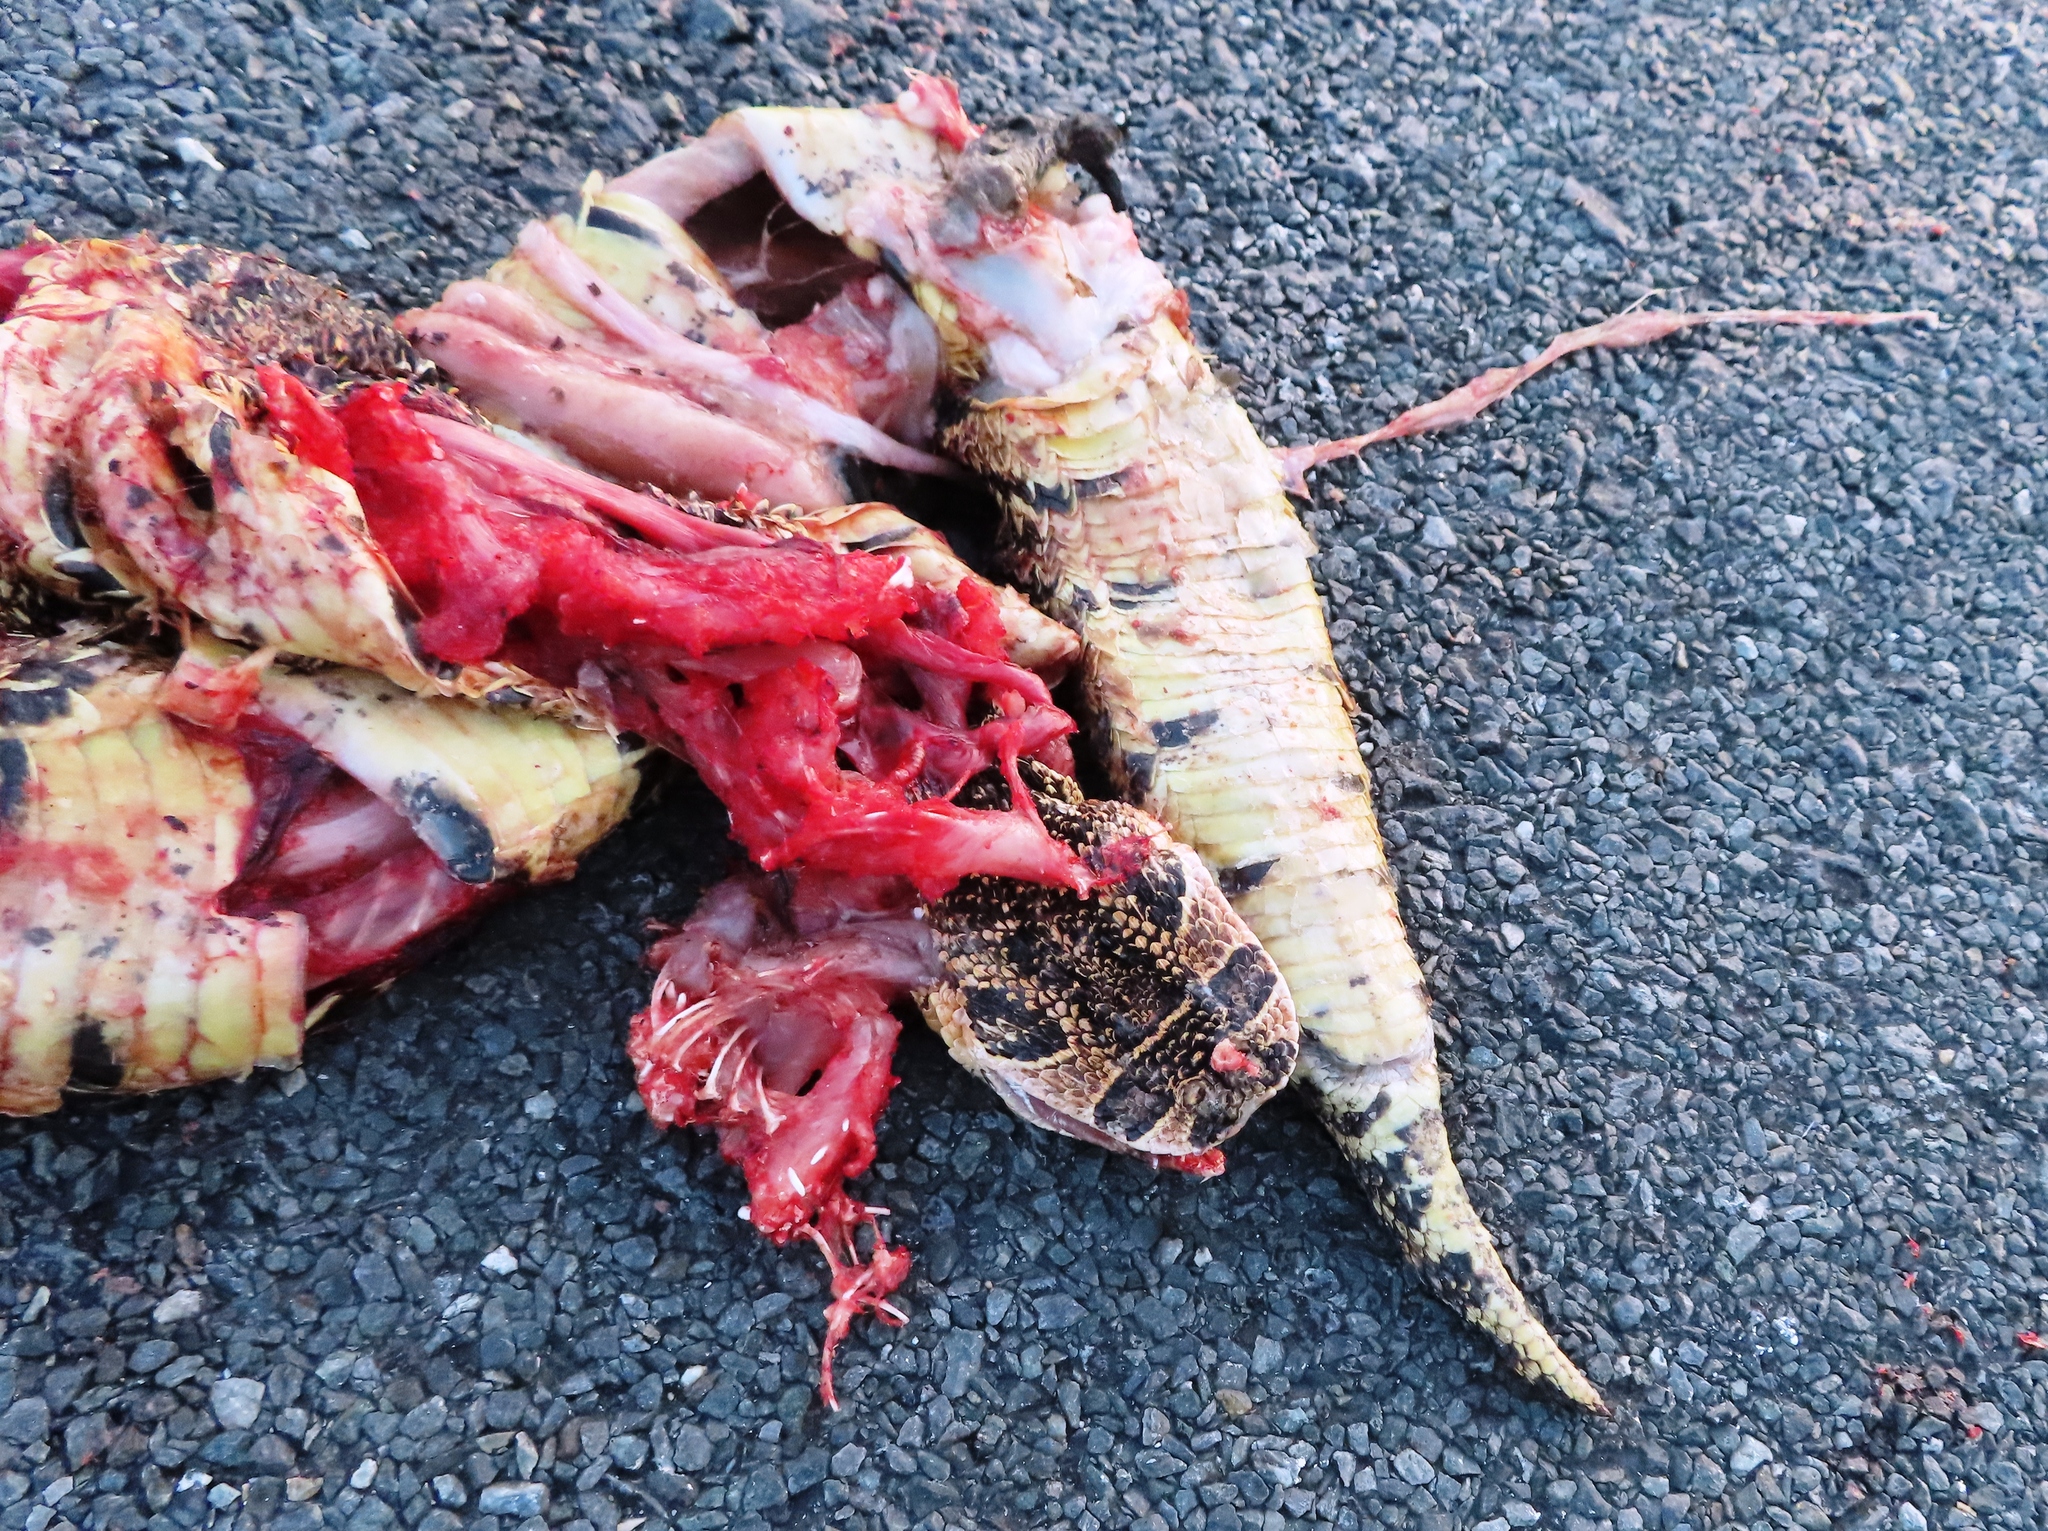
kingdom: Animalia
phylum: Chordata
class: Squamata
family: Viperidae
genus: Bitis
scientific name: Bitis arietans
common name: Puff adder
